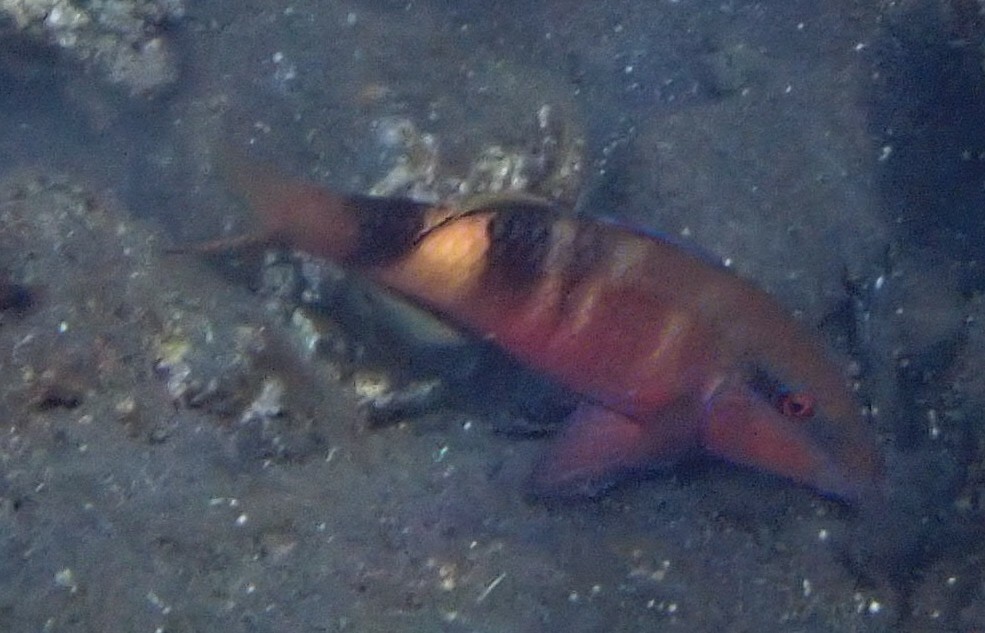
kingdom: Animalia
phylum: Chordata
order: Perciformes
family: Mullidae
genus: Parupeneus
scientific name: Parupeneus multifasciatus
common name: Manybar goatfish
